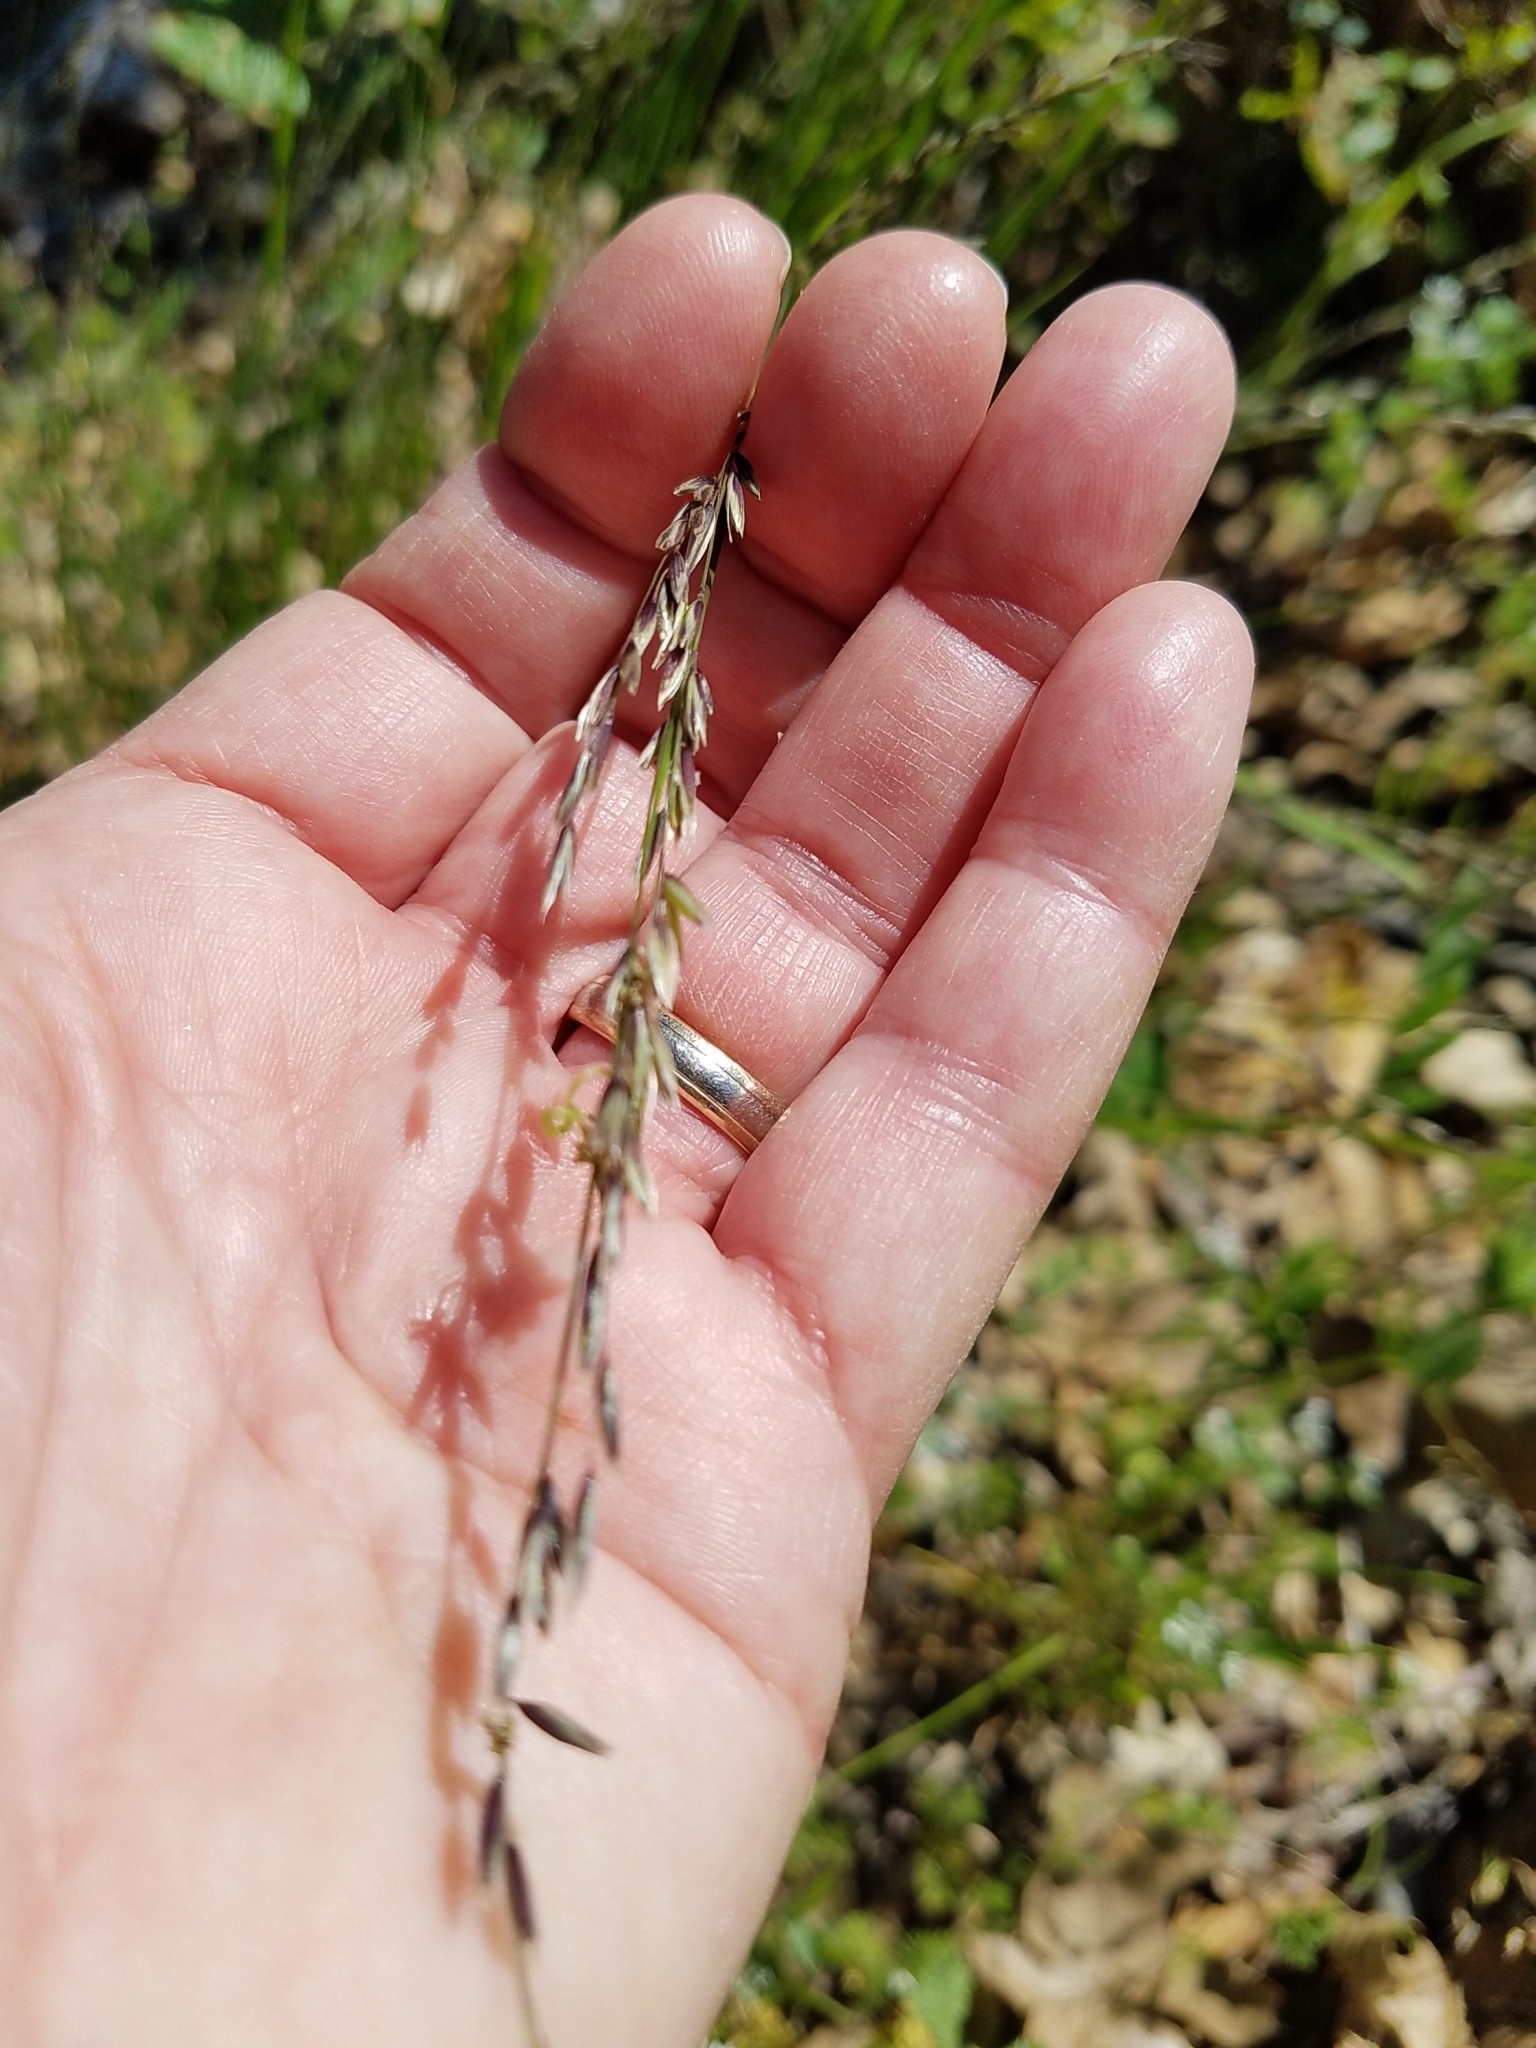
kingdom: Plantae
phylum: Tracheophyta
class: Liliopsida
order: Poales
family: Poaceae
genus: Melica
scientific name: Melica torreyana
